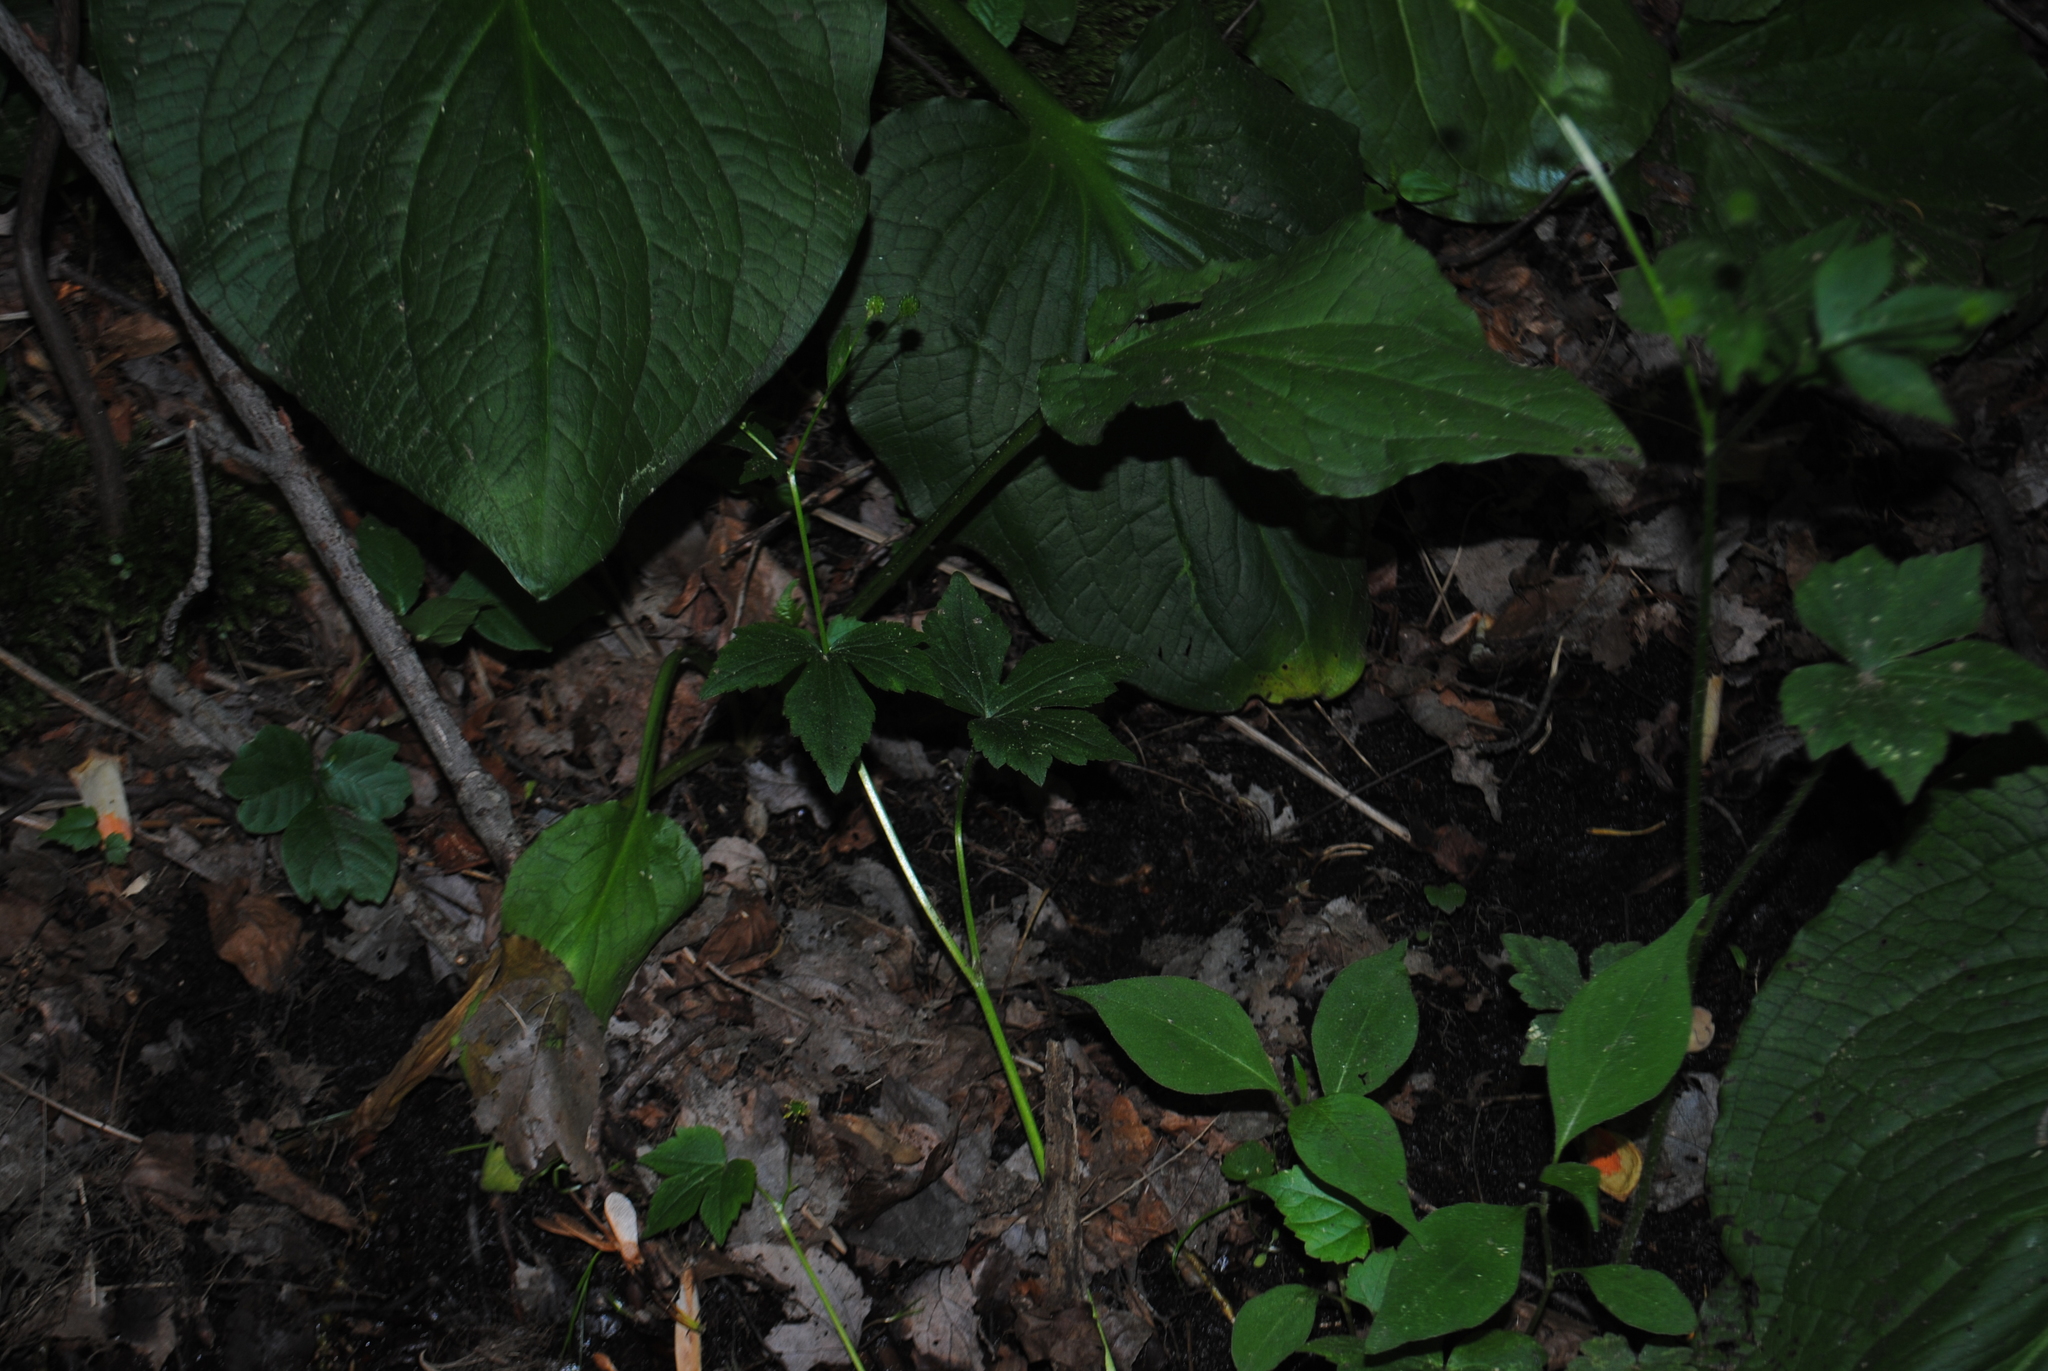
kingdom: Plantae
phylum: Tracheophyta
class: Magnoliopsida
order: Ranunculales
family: Ranunculaceae
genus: Ranunculus
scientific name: Ranunculus recurvatus
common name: Blisterwort
